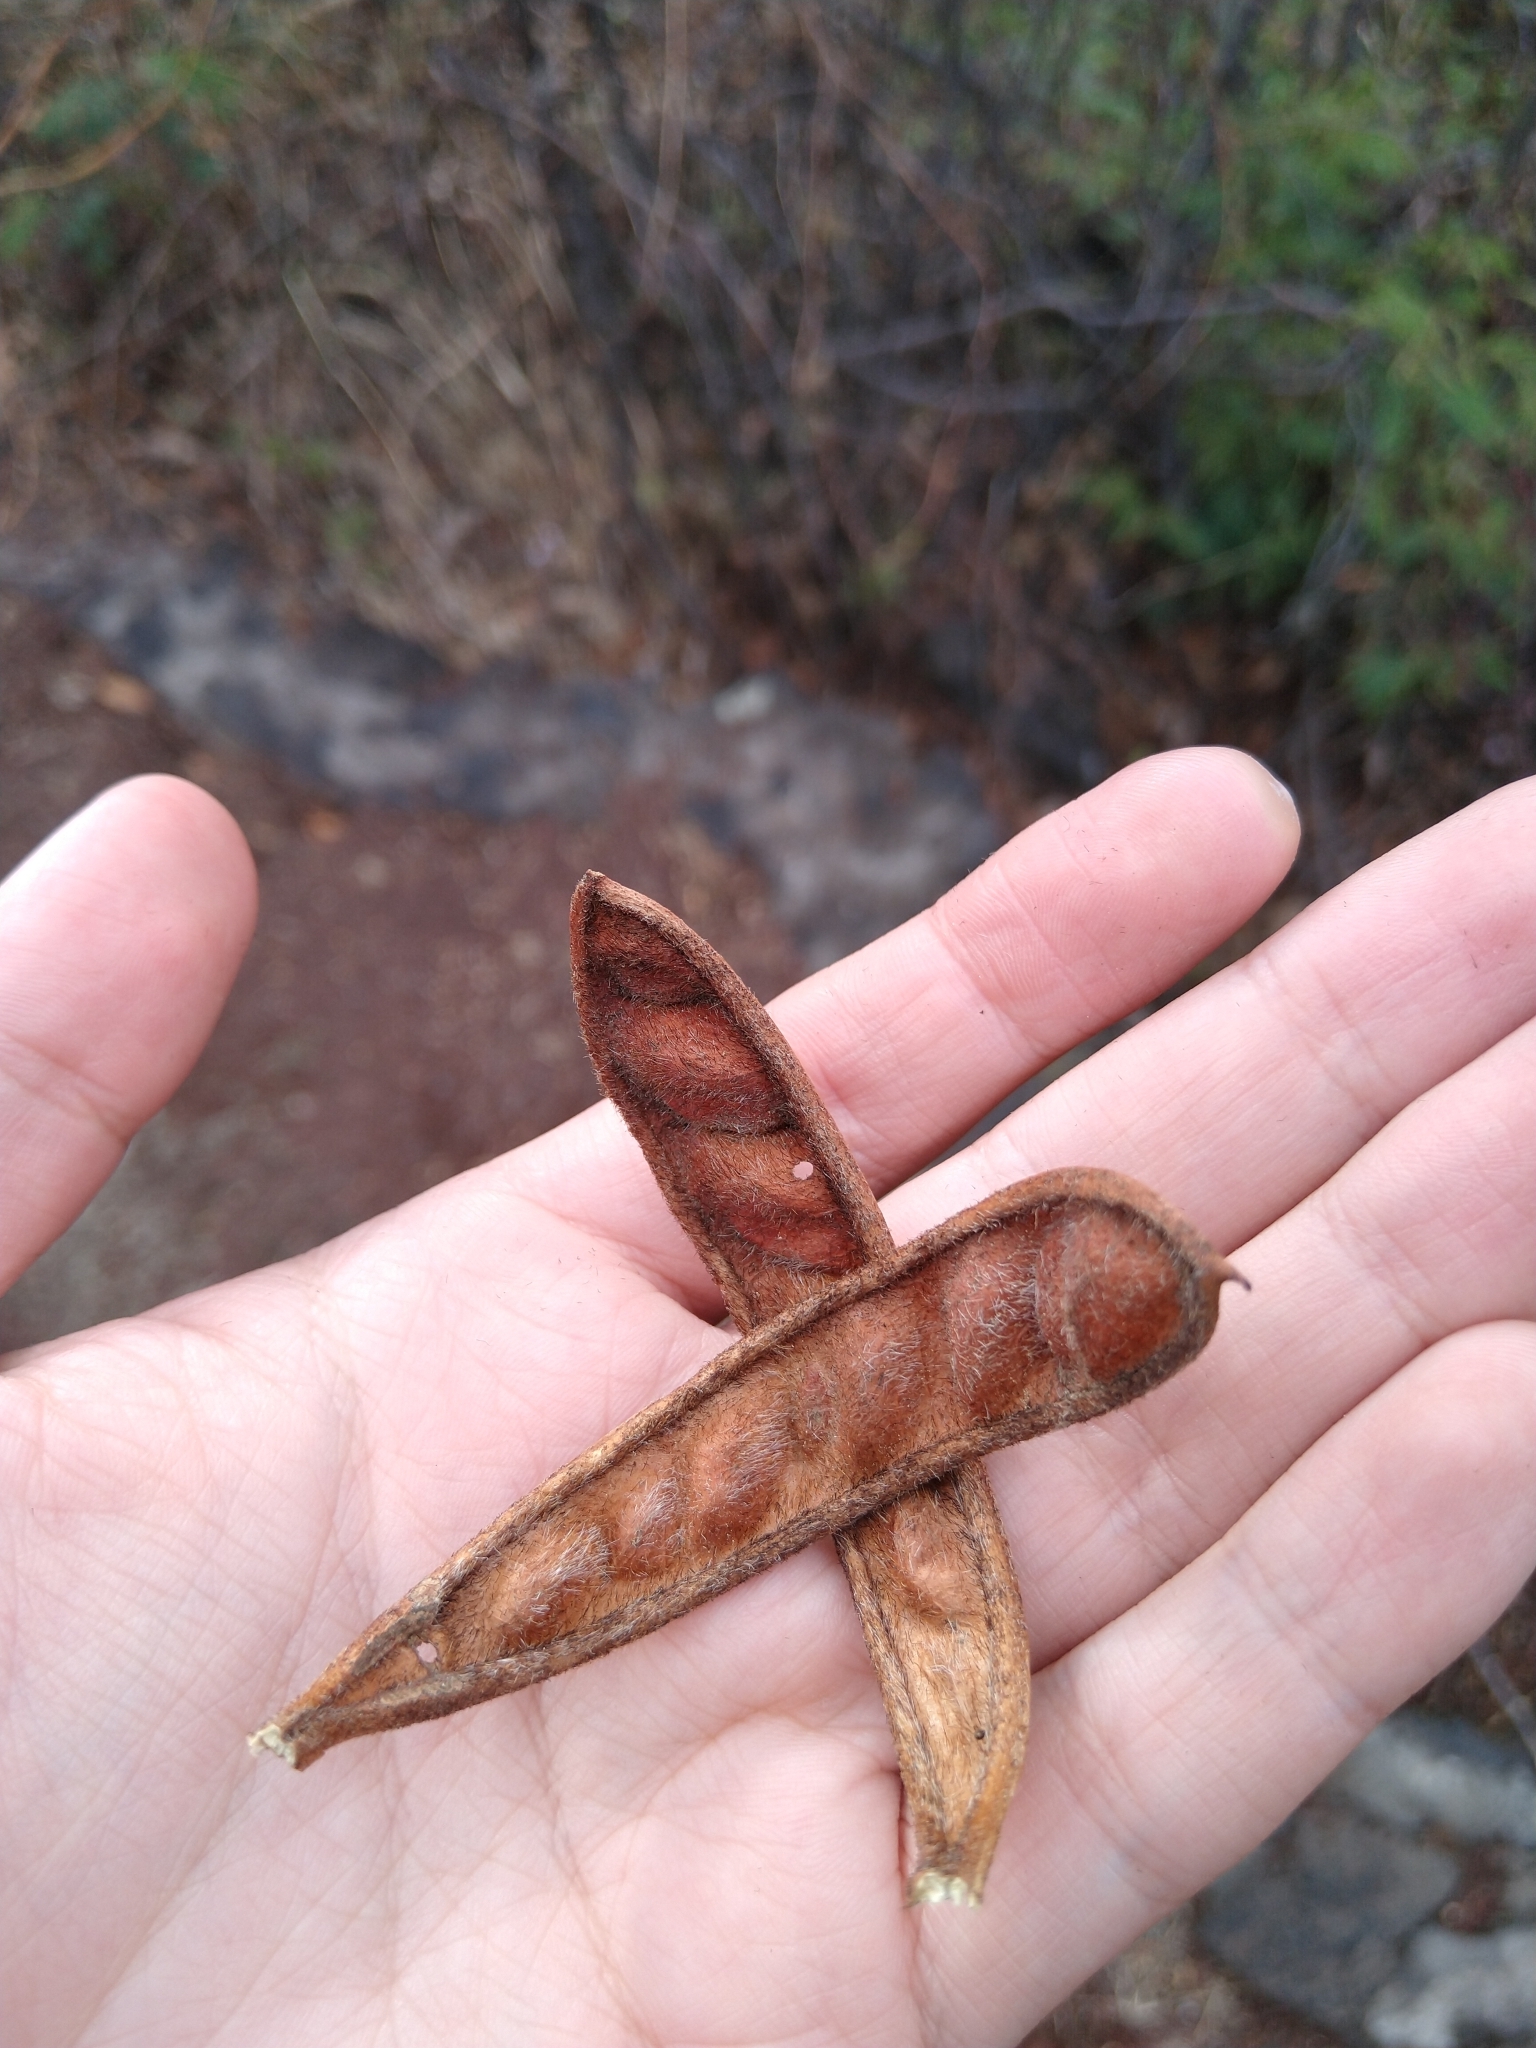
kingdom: Plantae
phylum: Tracheophyta
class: Magnoliopsida
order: Fabales
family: Fabaceae
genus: Calliandra
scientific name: Calliandra houstoniana
